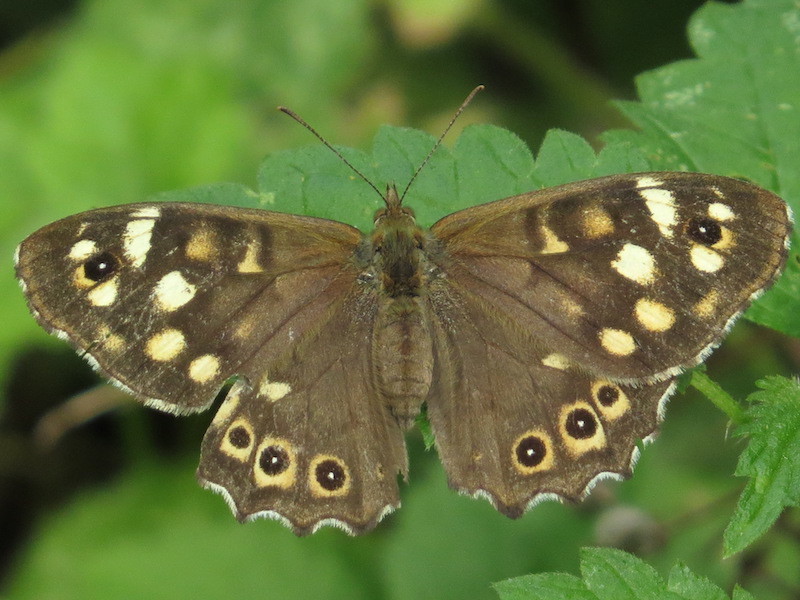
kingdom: Animalia
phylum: Arthropoda
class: Insecta
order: Lepidoptera
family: Nymphalidae
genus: Pararge
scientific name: Pararge aegeria
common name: Speckled wood
